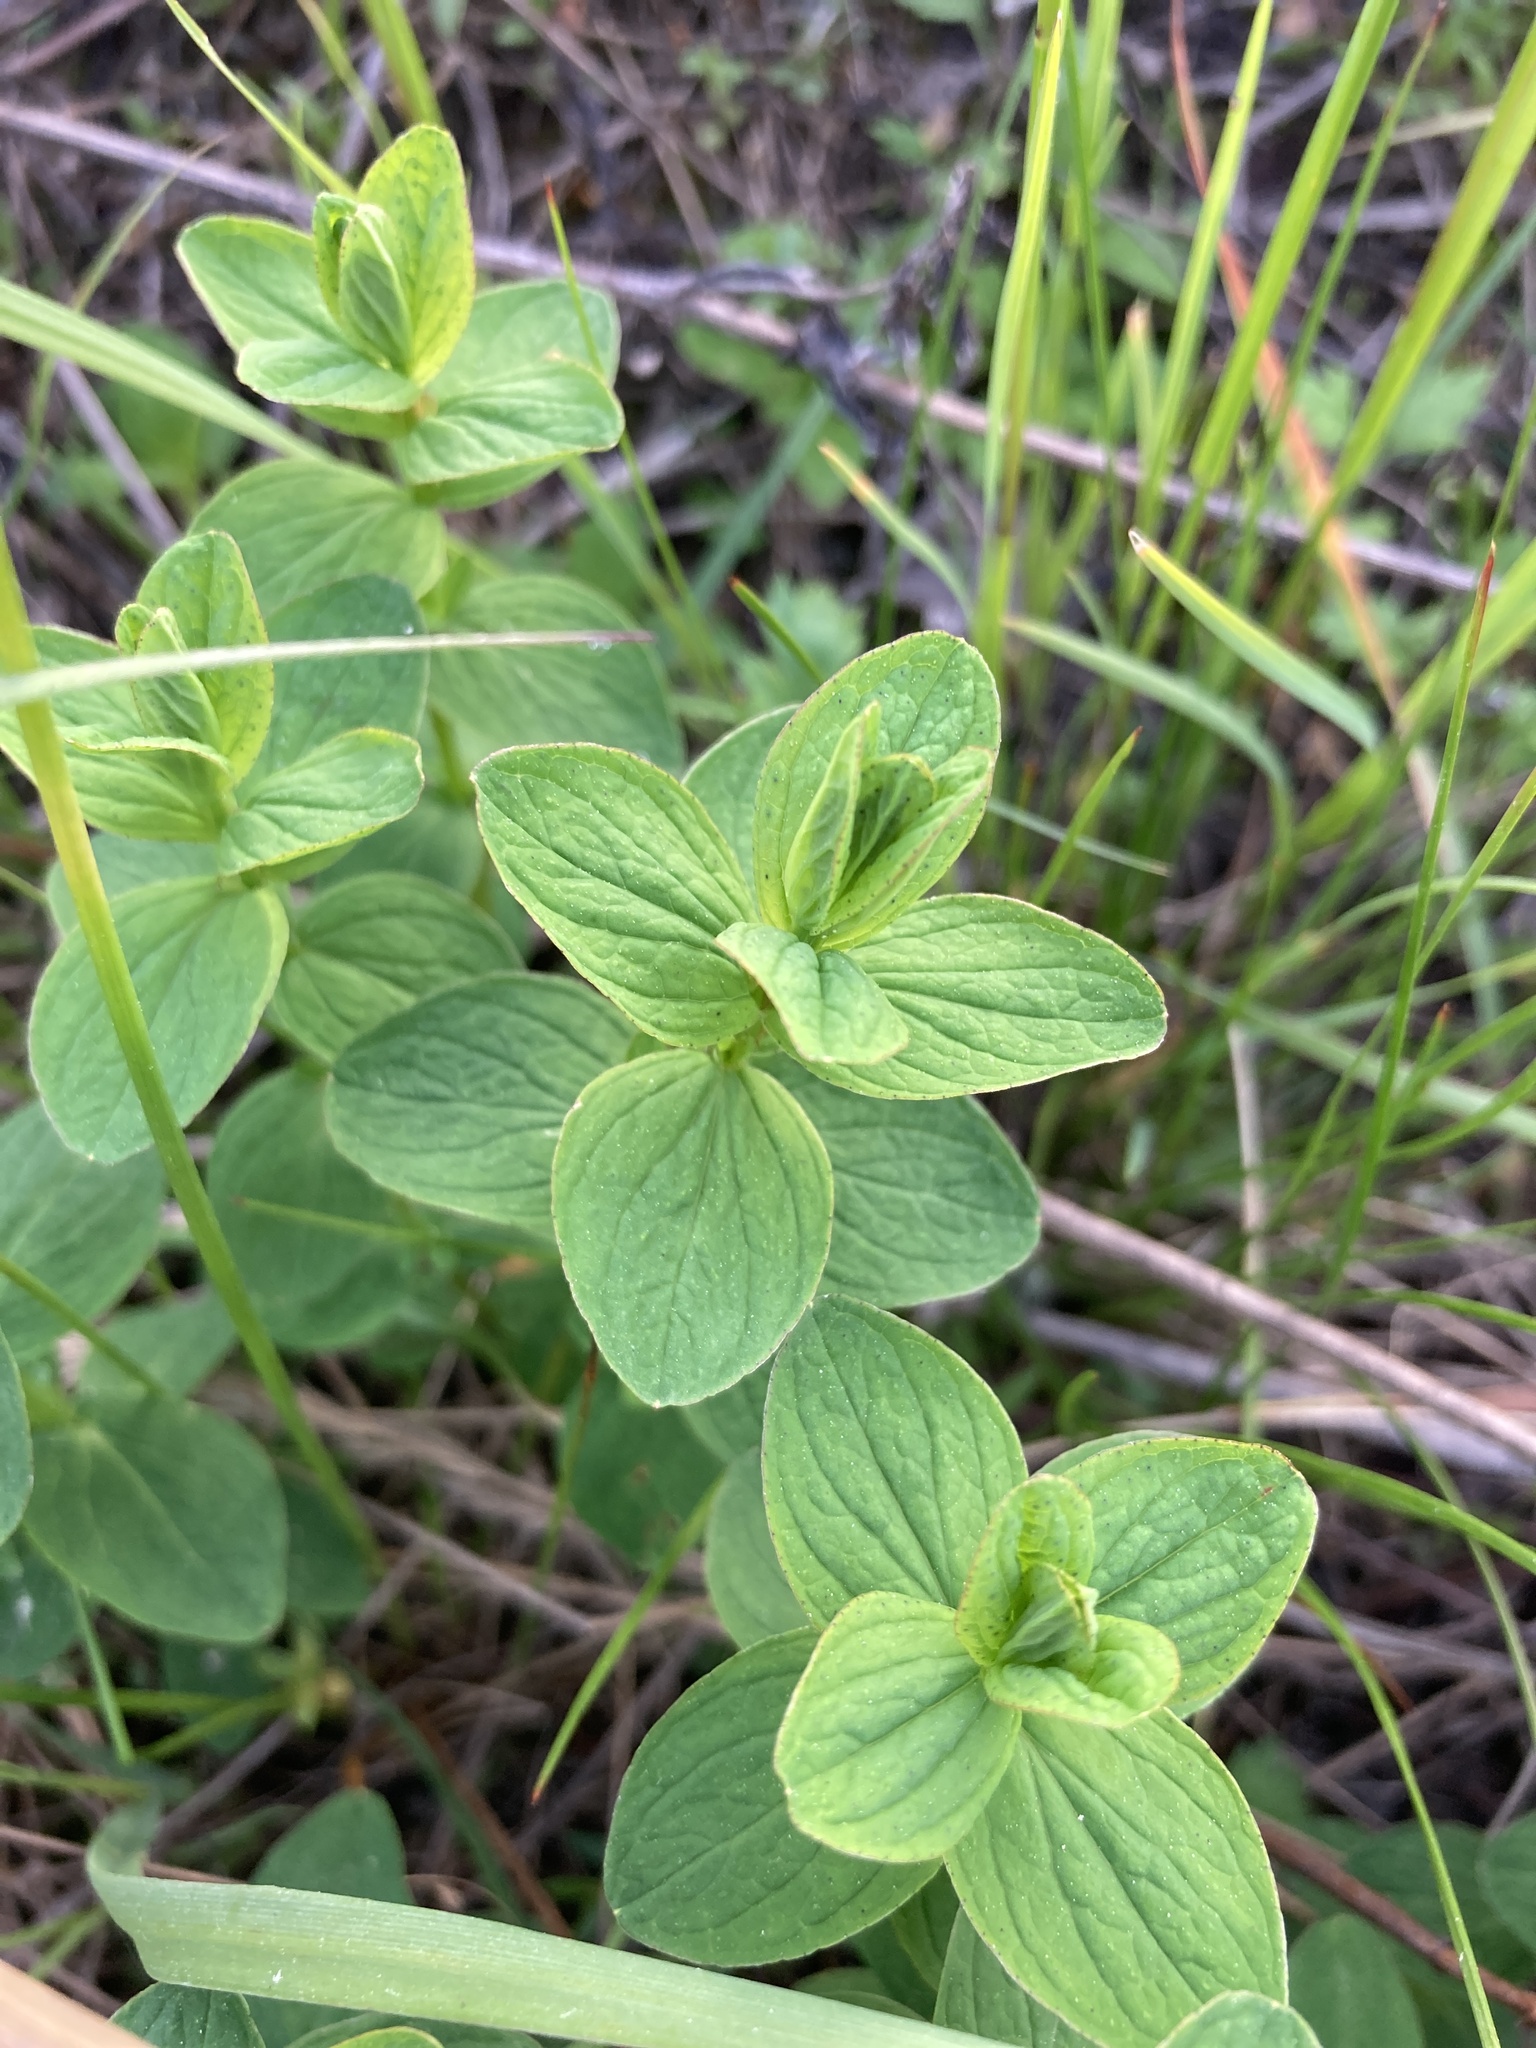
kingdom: Plantae
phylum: Tracheophyta
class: Magnoliopsida
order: Malpighiales
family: Hypericaceae
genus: Hypericum
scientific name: Hypericum maculatum
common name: Imperforate st. john's-wort
